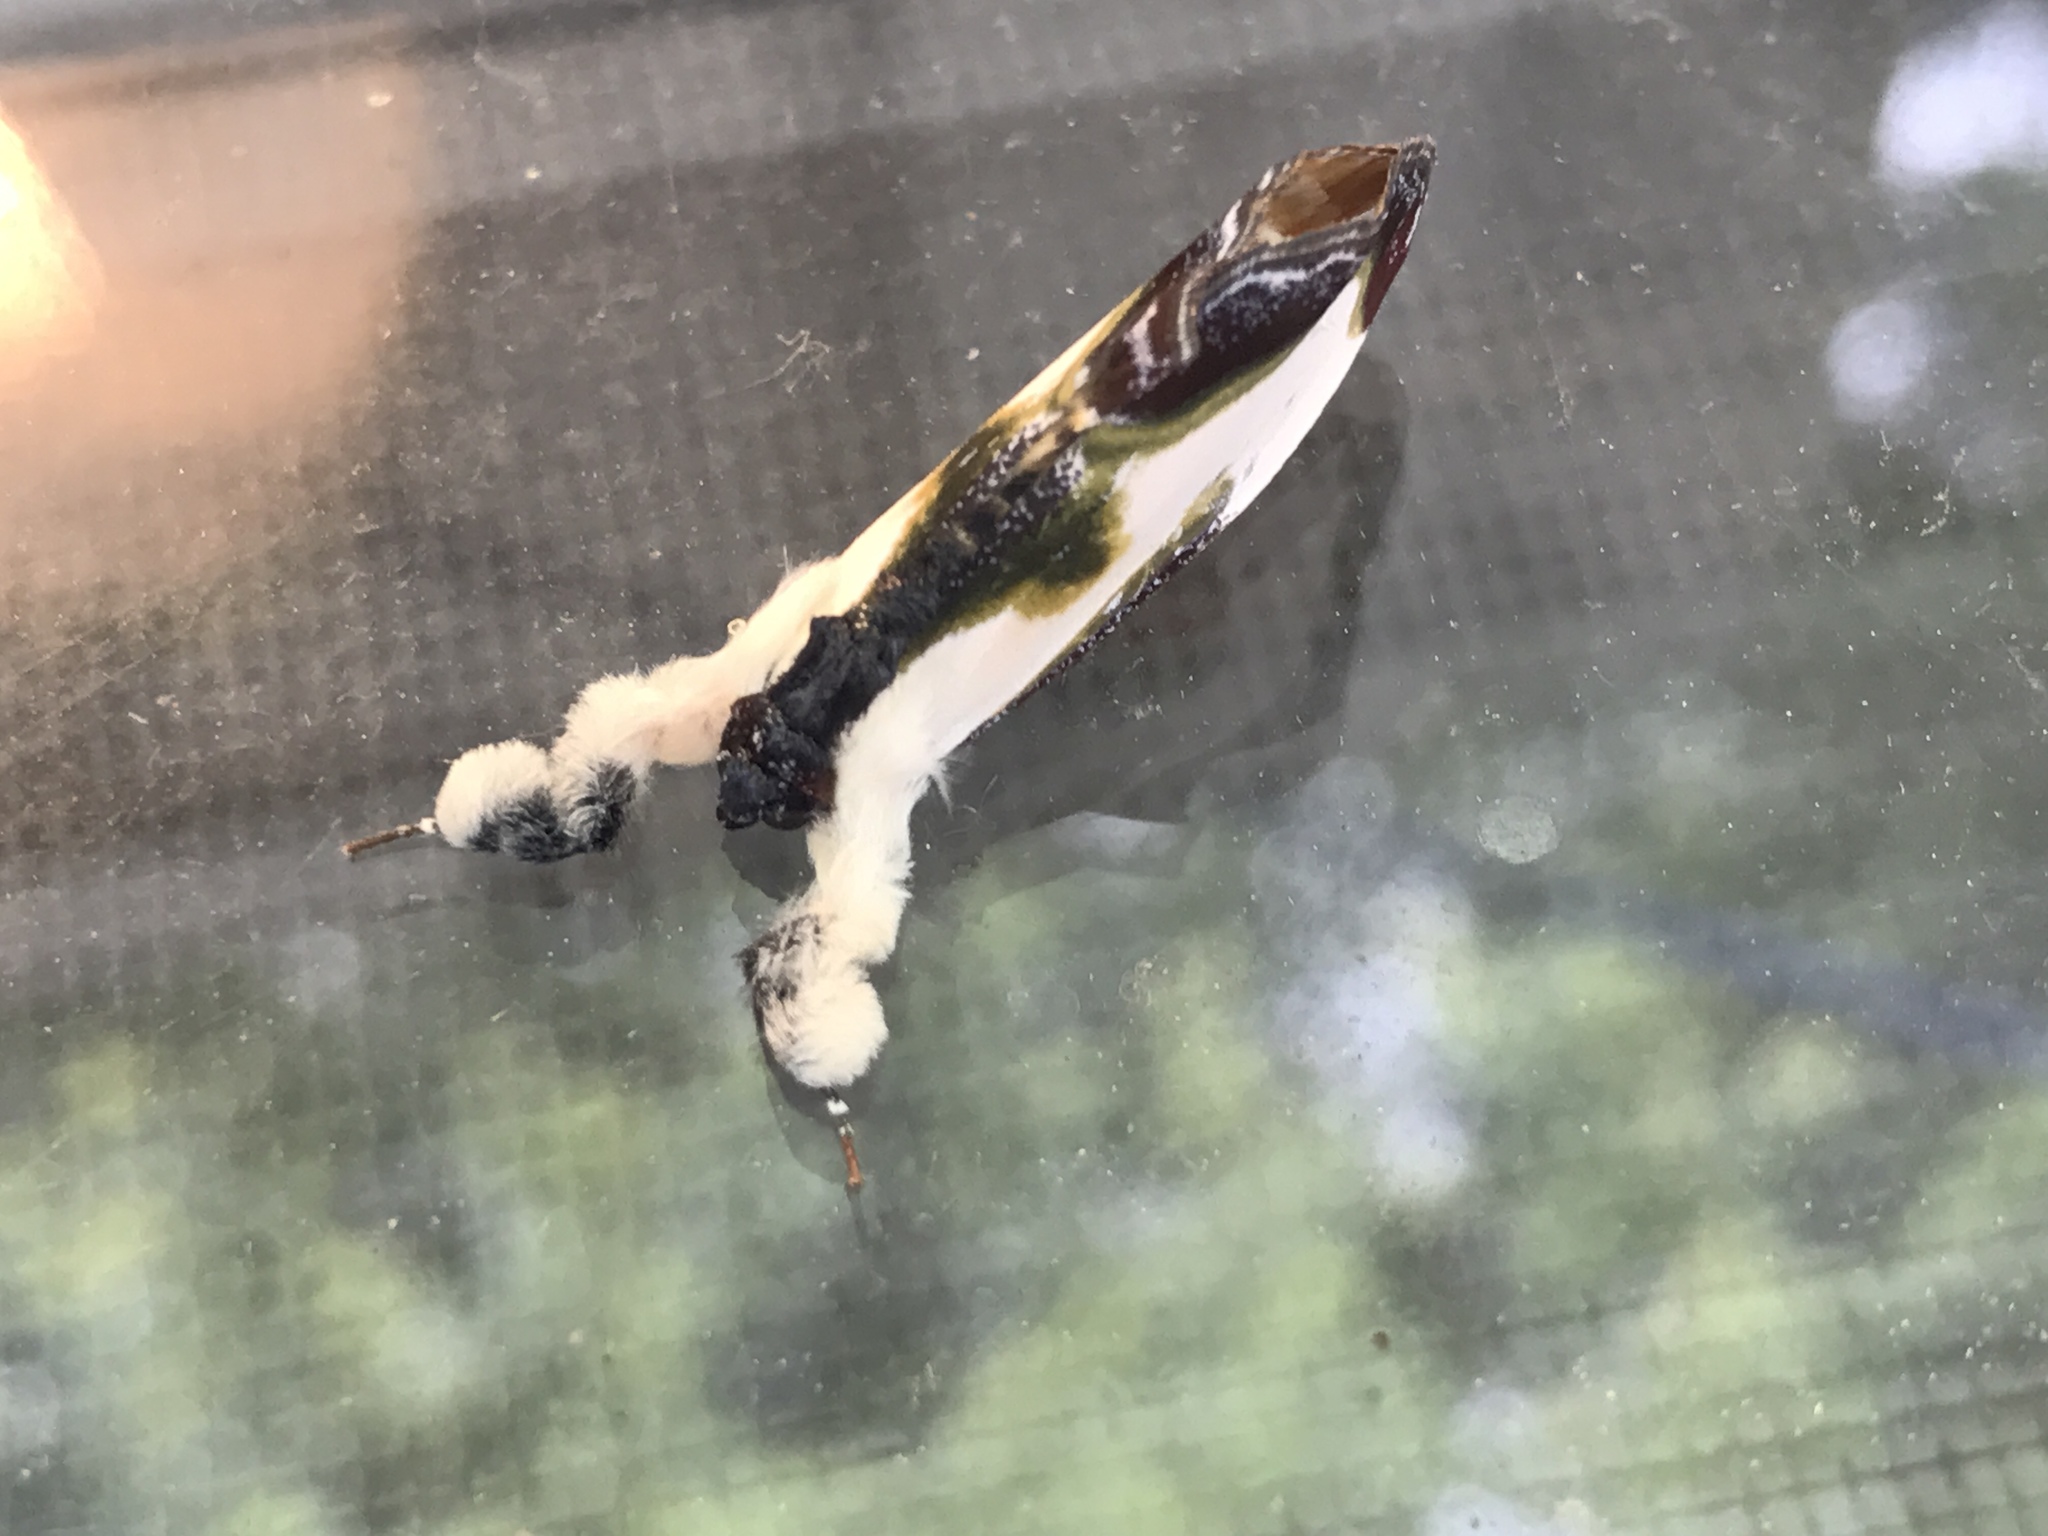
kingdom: Animalia
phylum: Arthropoda
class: Insecta
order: Lepidoptera
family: Noctuidae
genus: Eudryas
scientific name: Eudryas grata
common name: Beautiful wood-nymph
